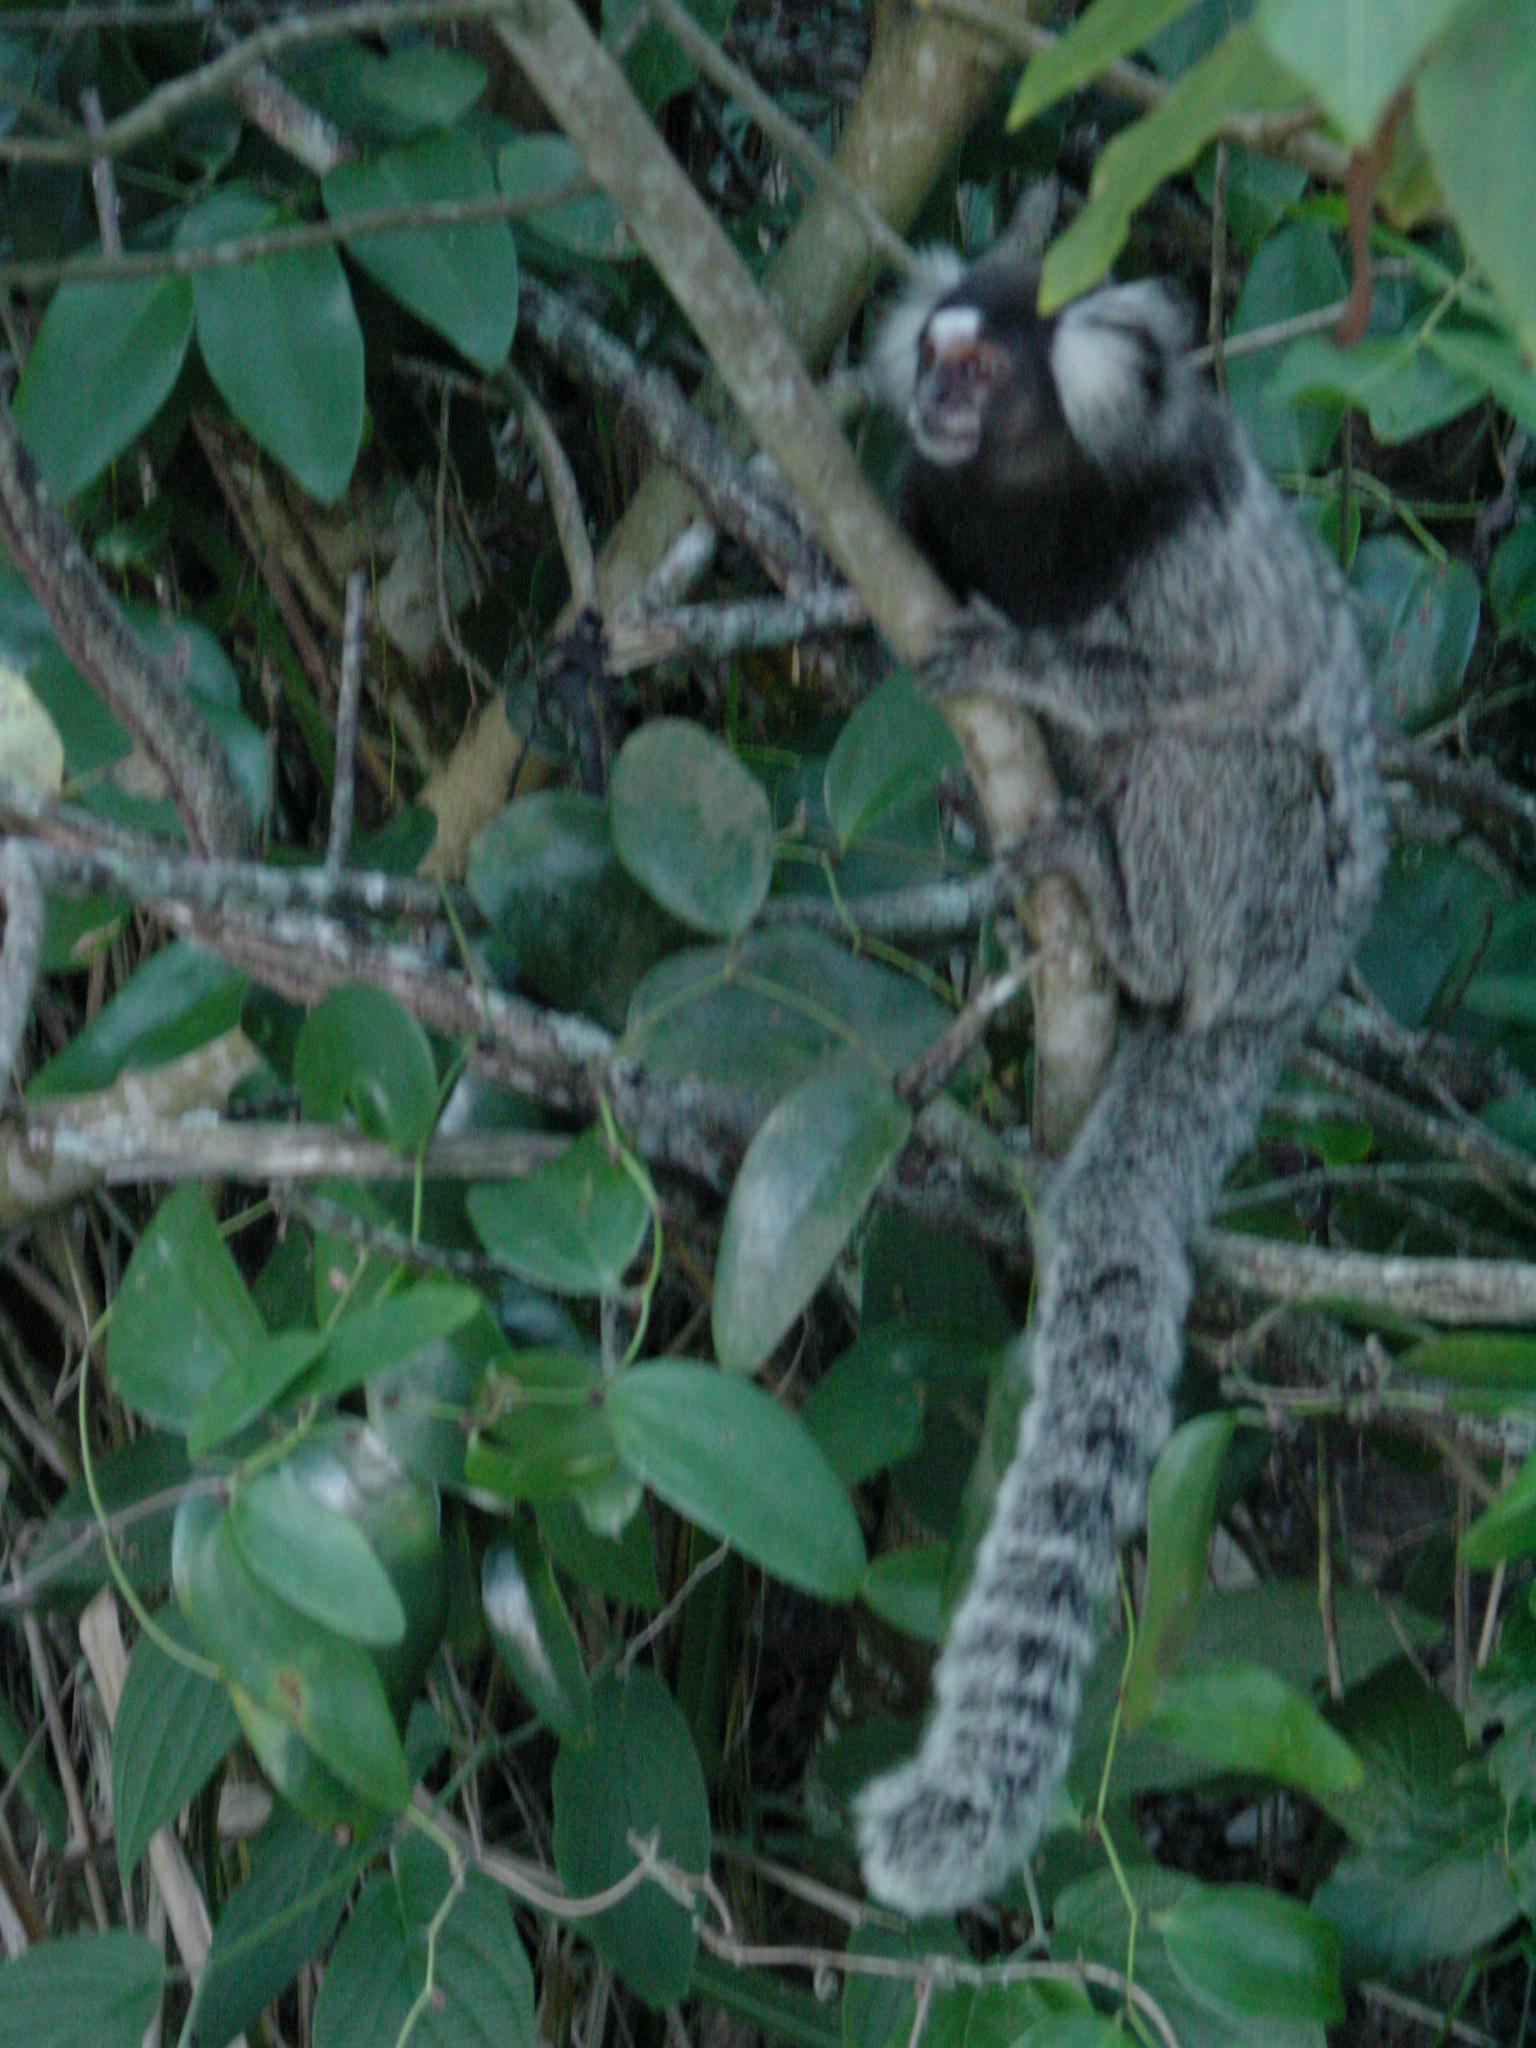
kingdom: Animalia
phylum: Chordata
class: Mammalia
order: Primates
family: Callitrichidae
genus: Callithrix
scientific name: Callithrix jacchus
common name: Common marmoset
